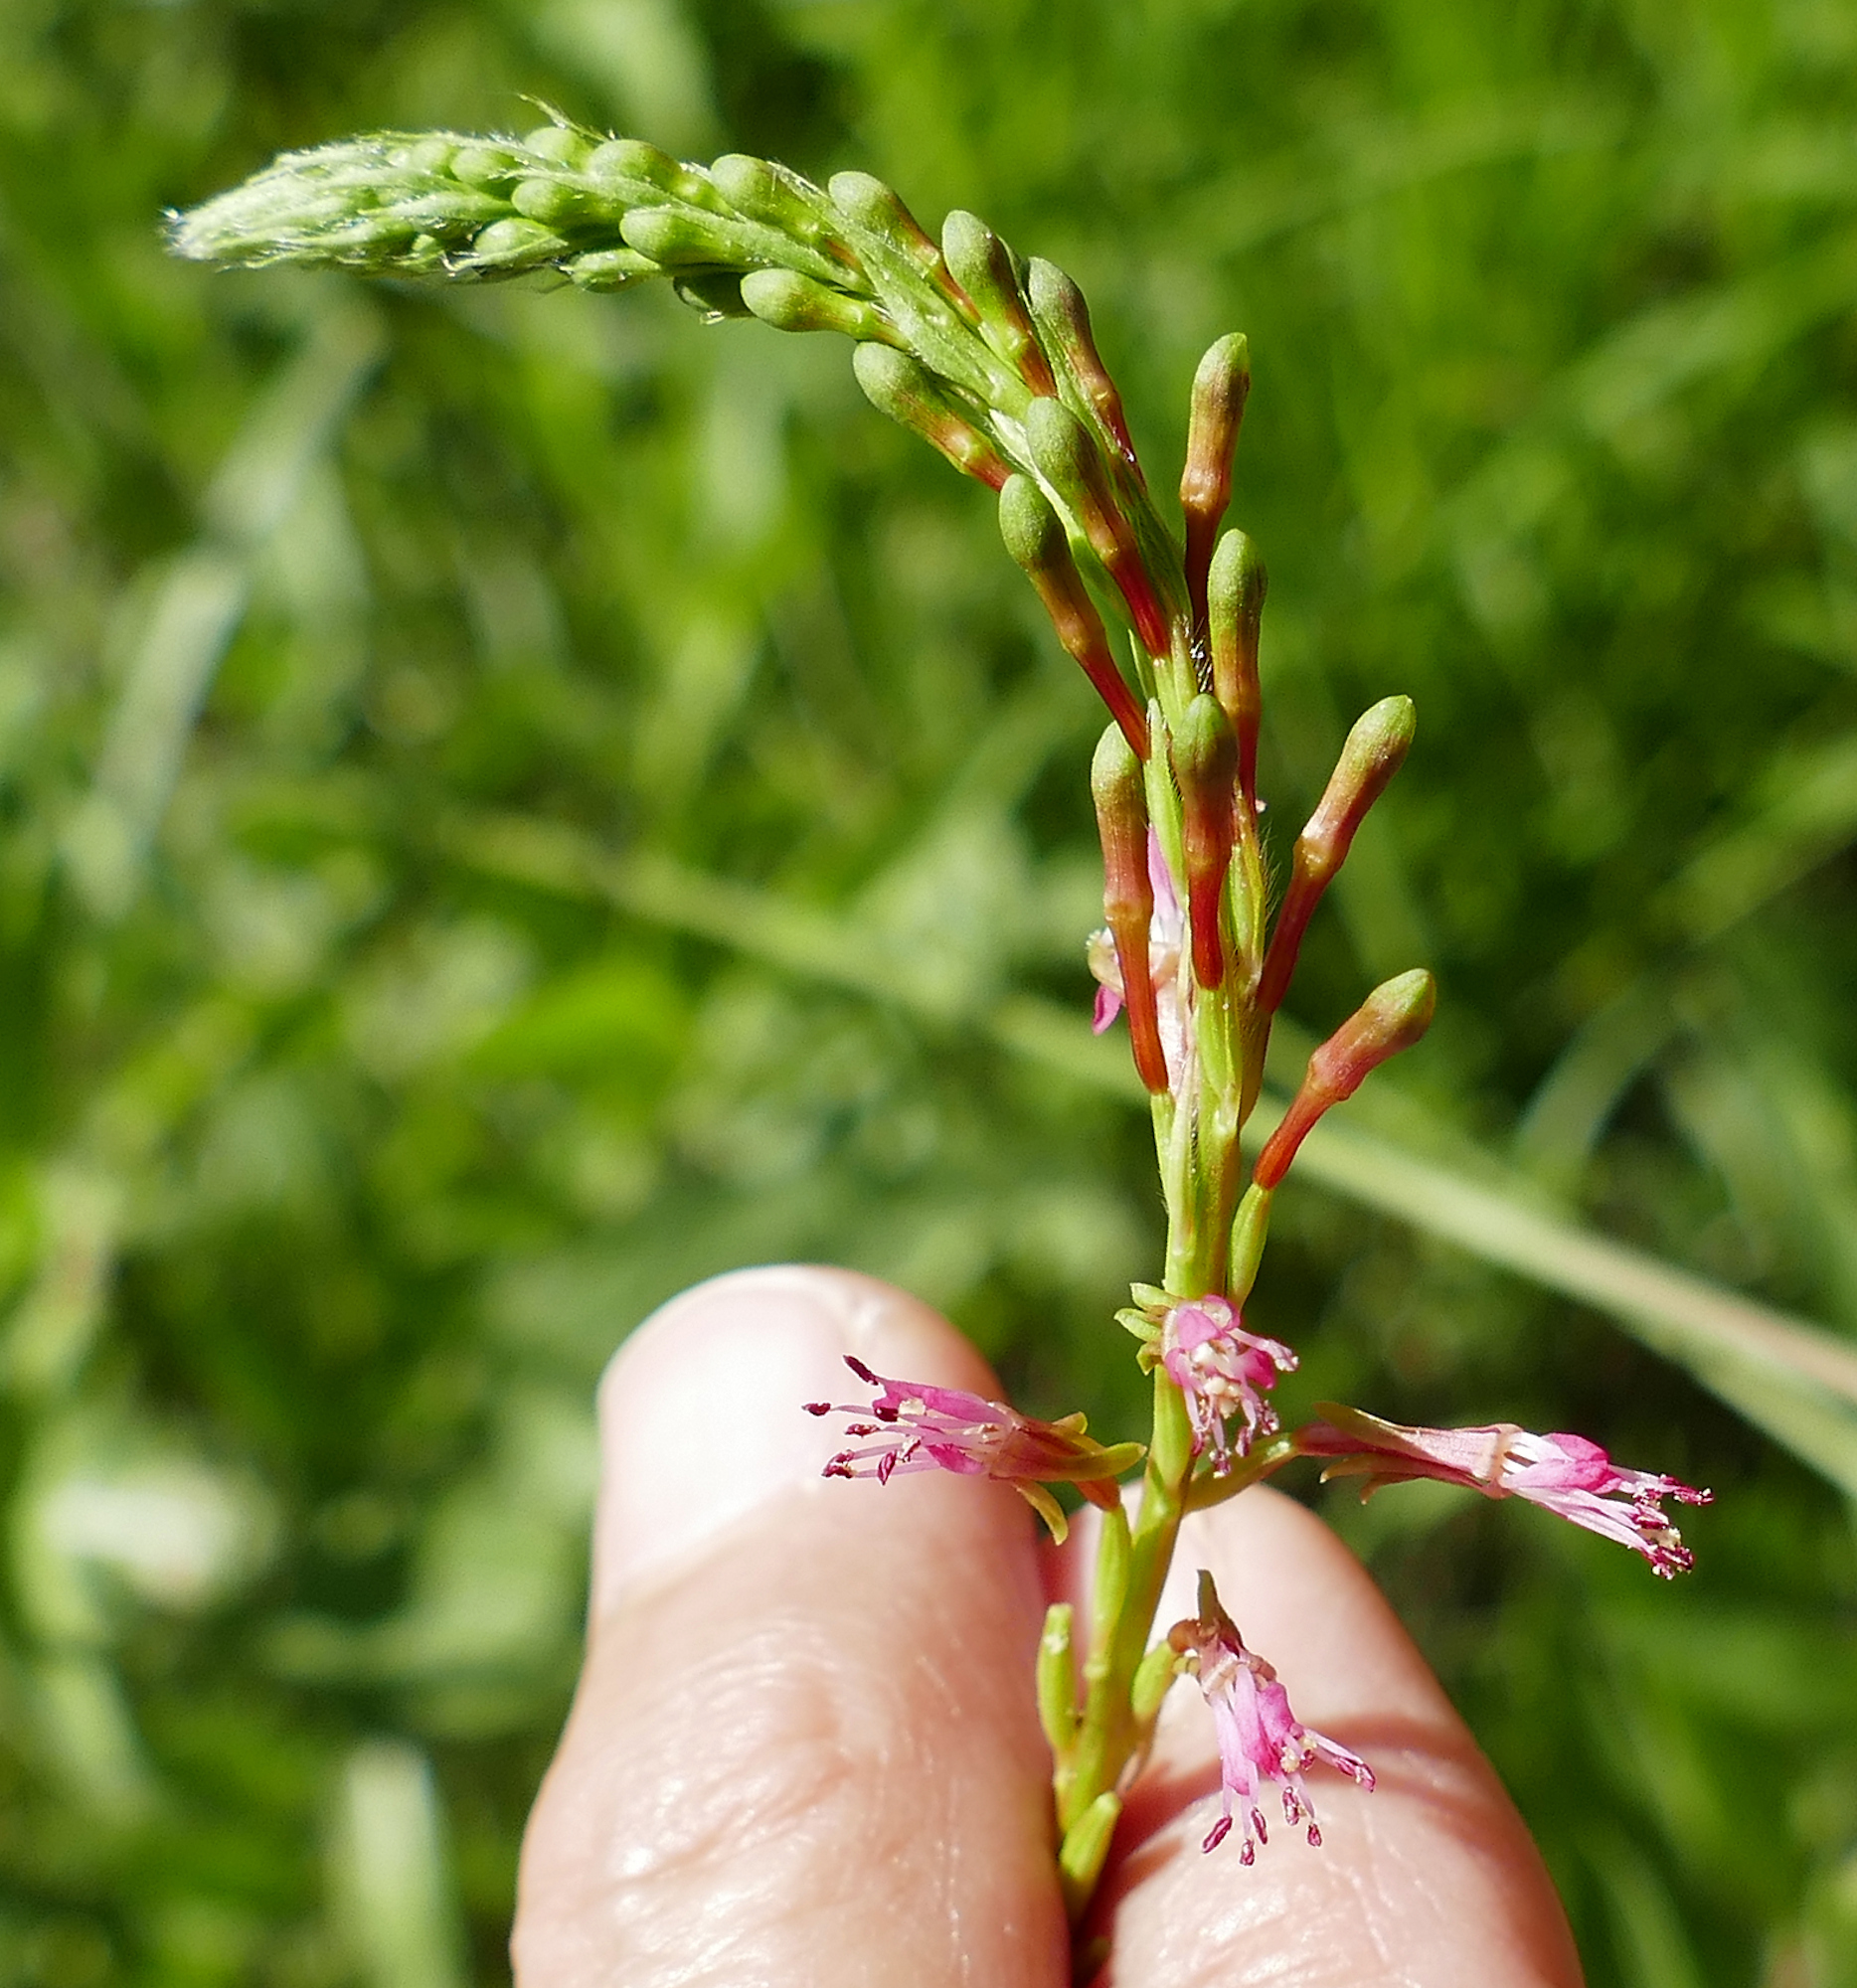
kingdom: Plantae
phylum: Tracheophyta
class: Magnoliopsida
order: Myrtales
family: Onagraceae
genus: Oenothera
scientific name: Oenothera curtiflora
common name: Velvetweed
